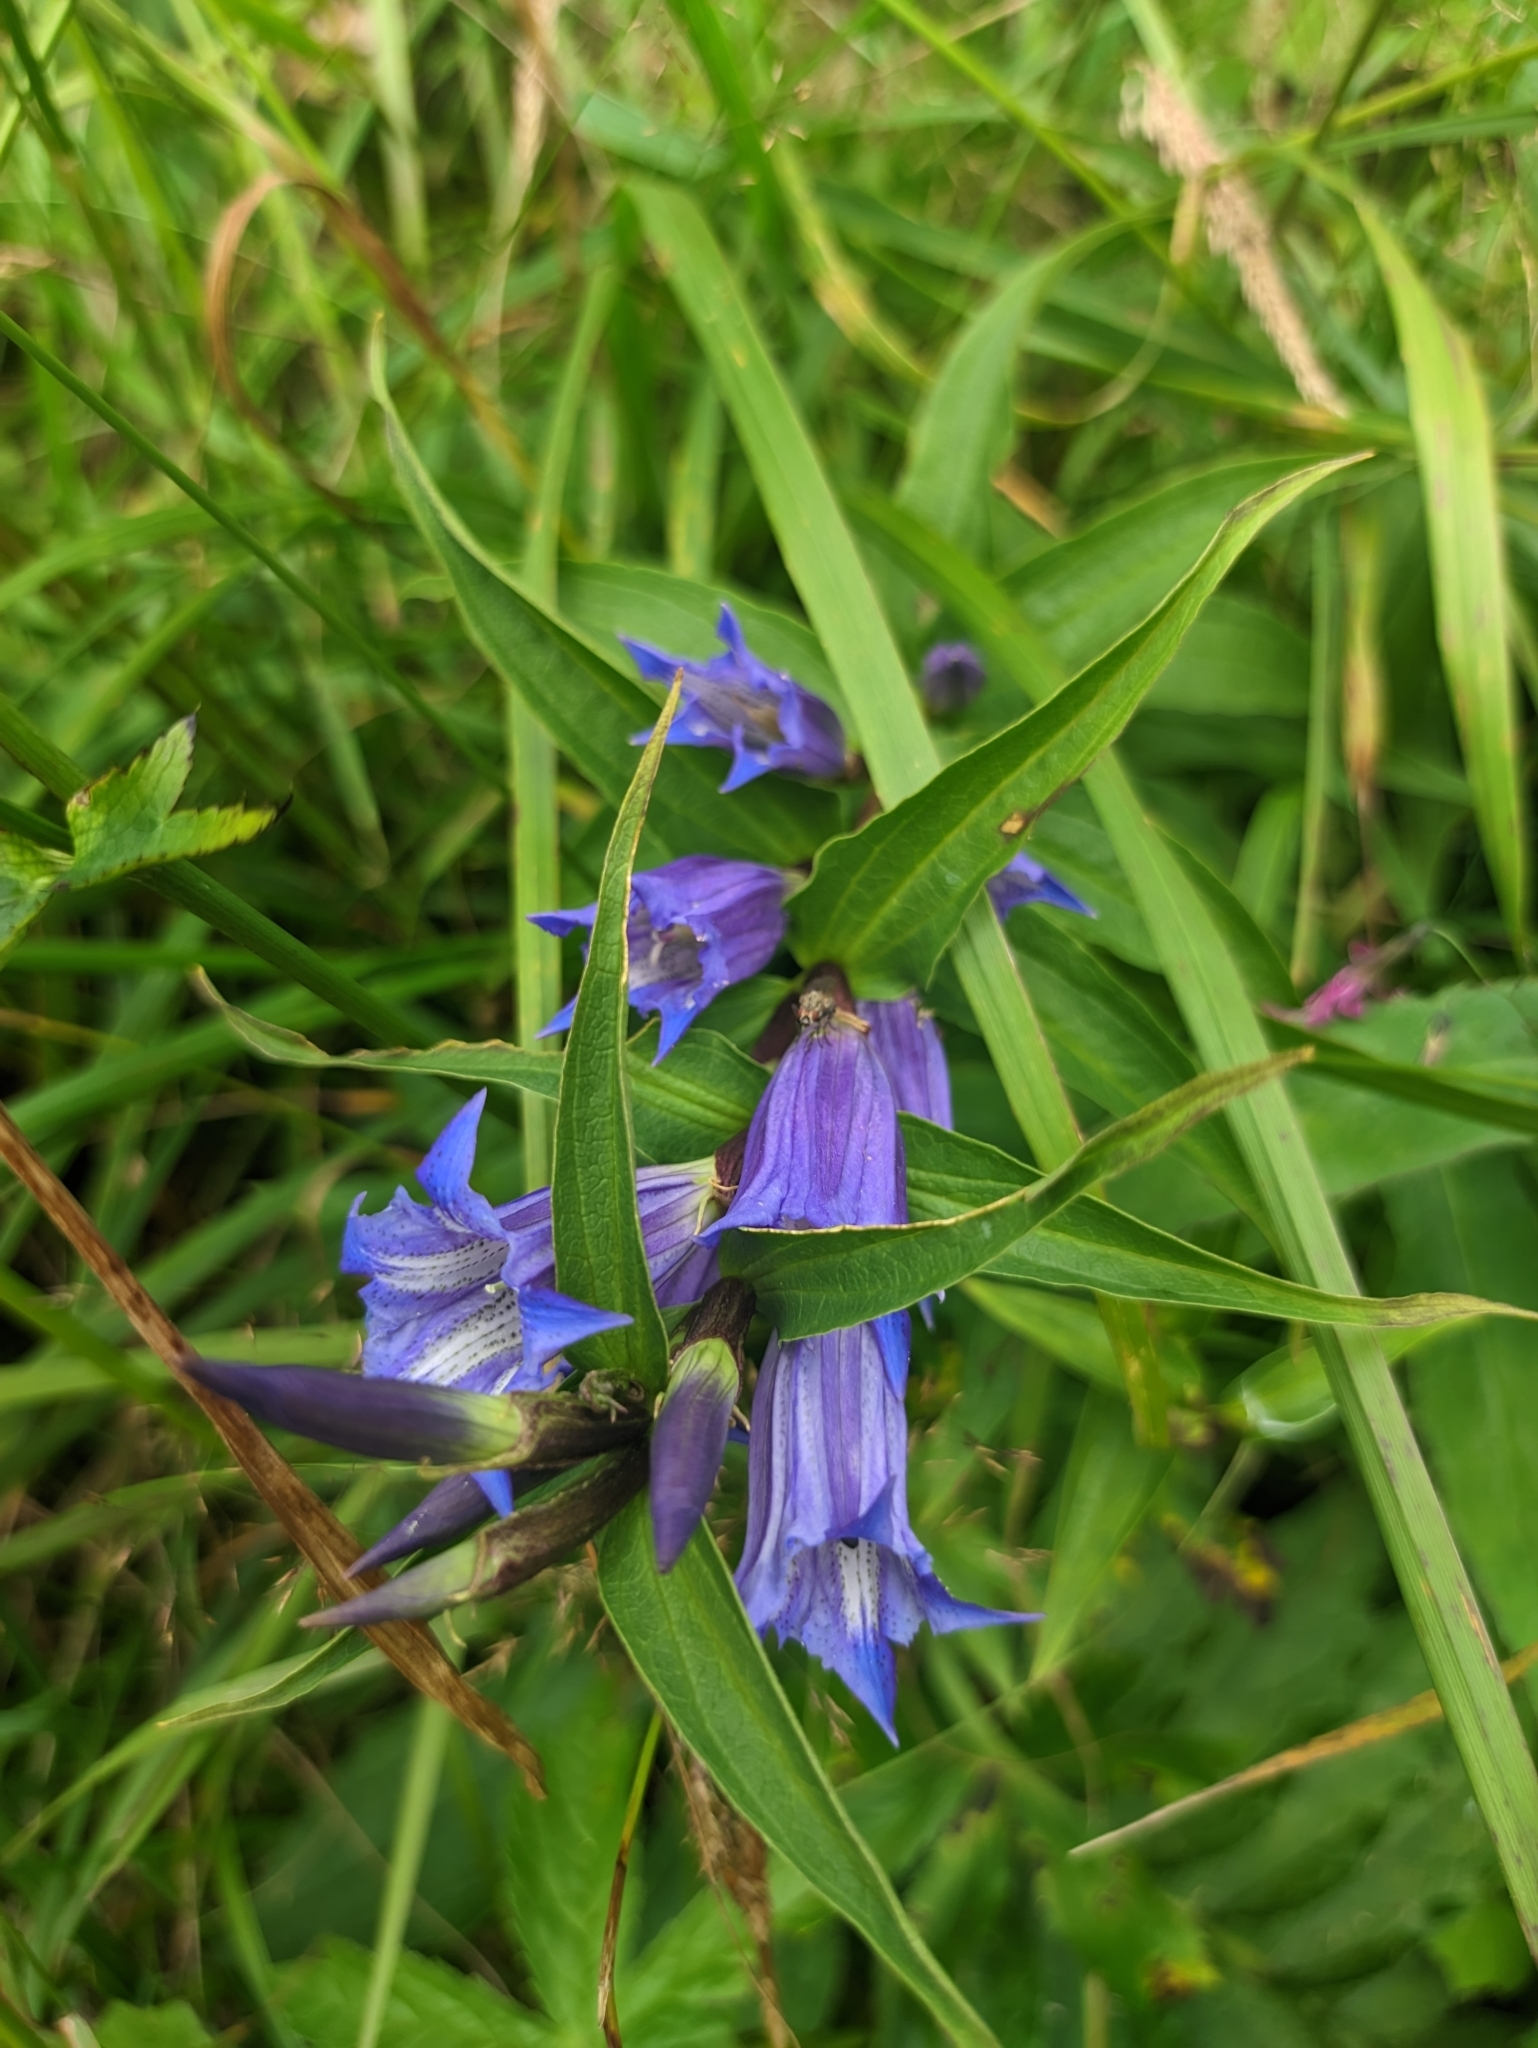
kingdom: Plantae
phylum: Tracheophyta
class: Magnoliopsida
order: Gentianales
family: Gentianaceae
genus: Gentiana
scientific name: Gentiana asclepiadea
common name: Willow gentian
